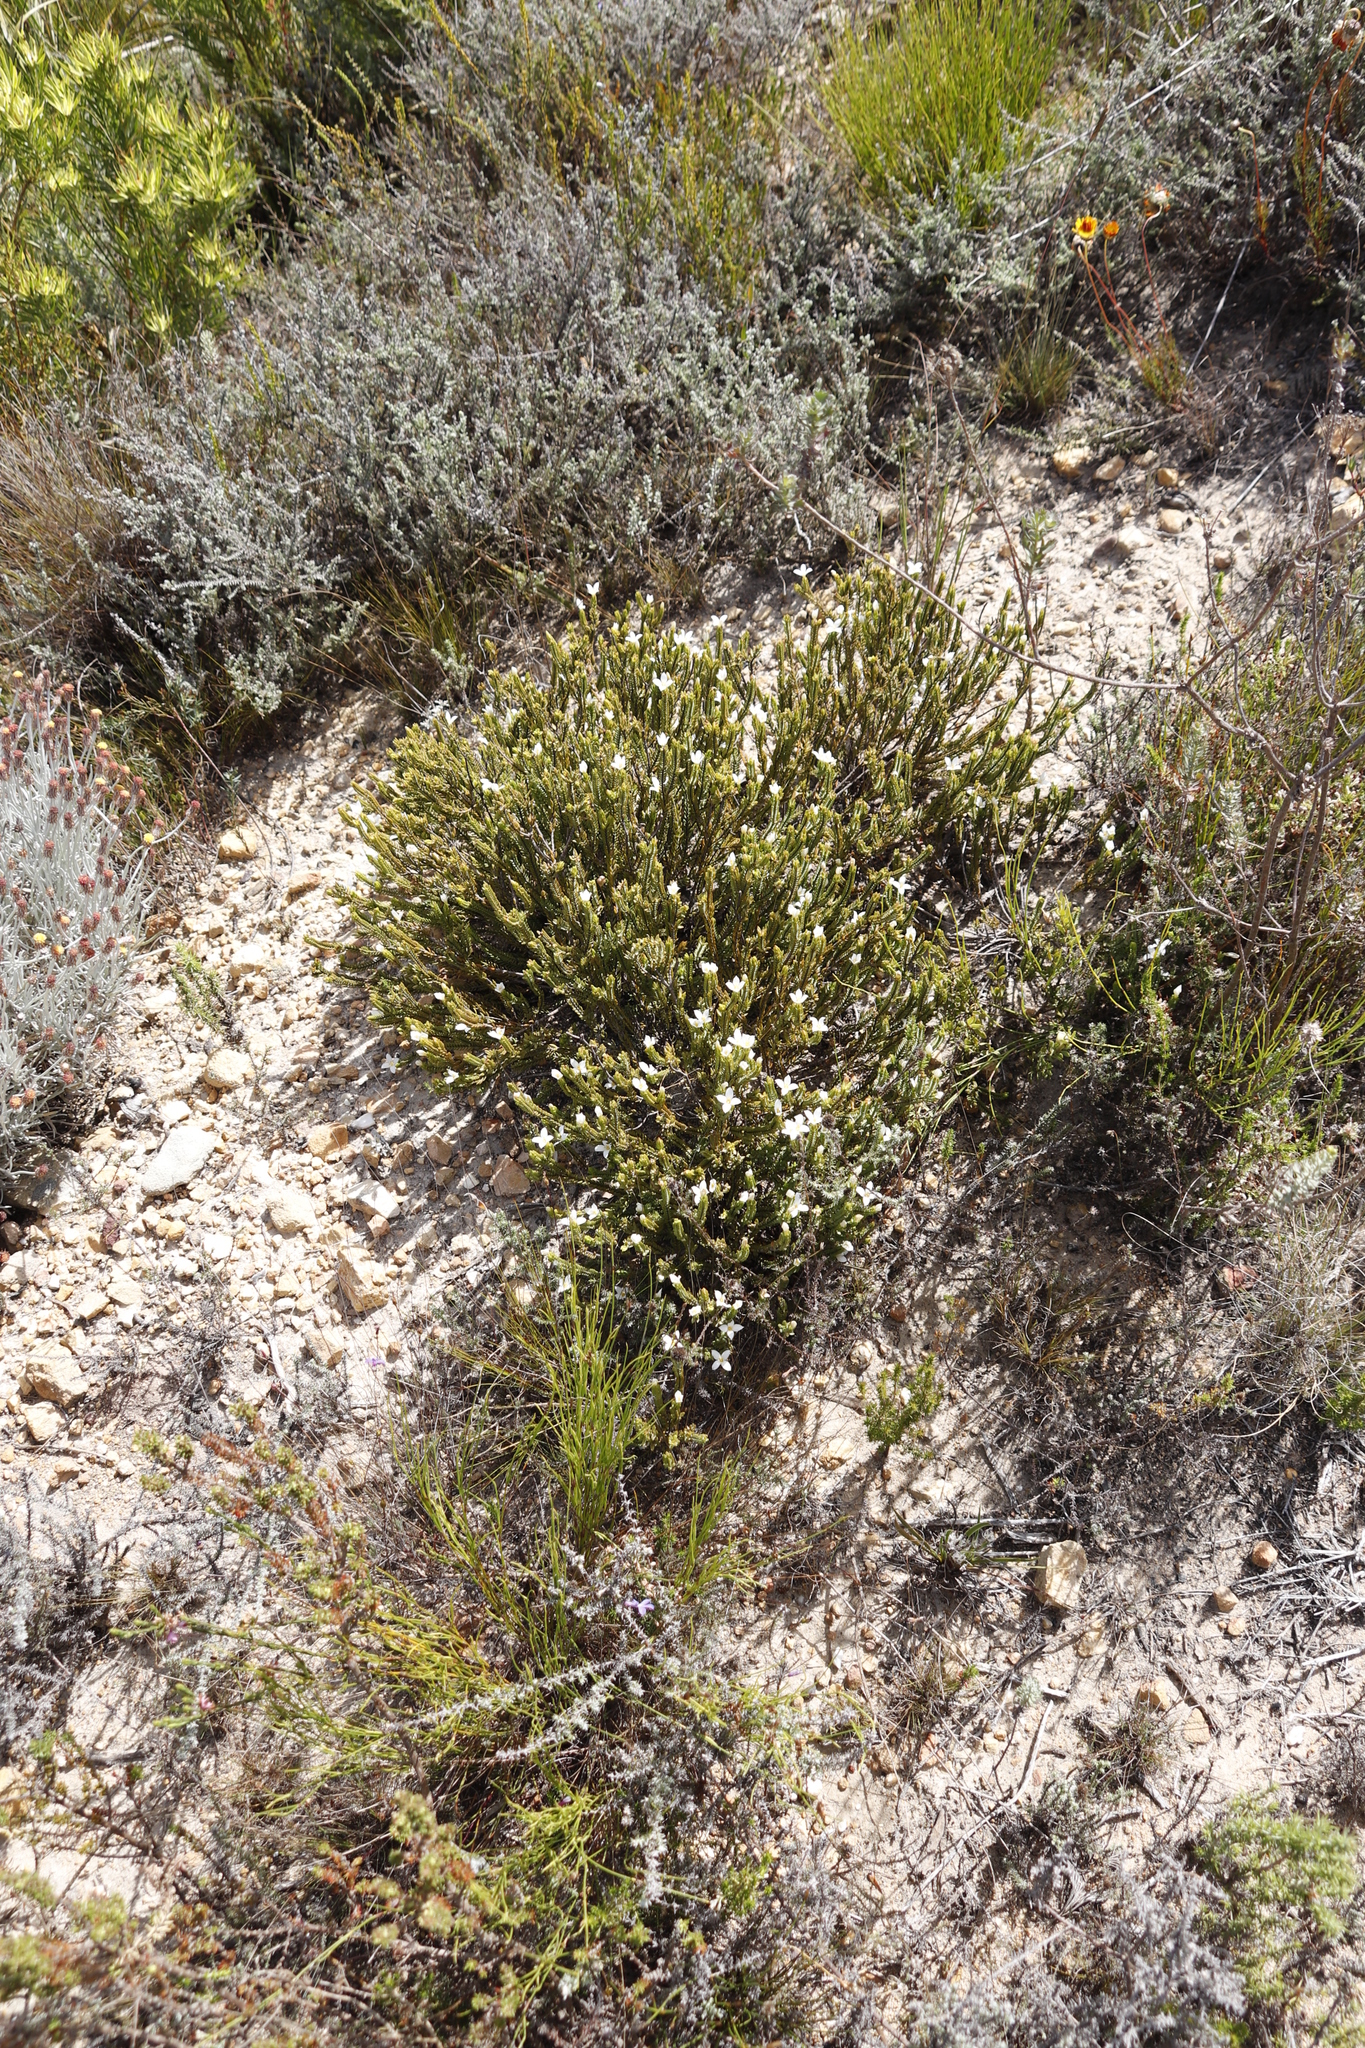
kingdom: Plantae
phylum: Tracheophyta
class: Magnoliopsida
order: Malvales
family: Thymelaeaceae
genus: Lachnaea
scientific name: Lachnaea grandiflora
